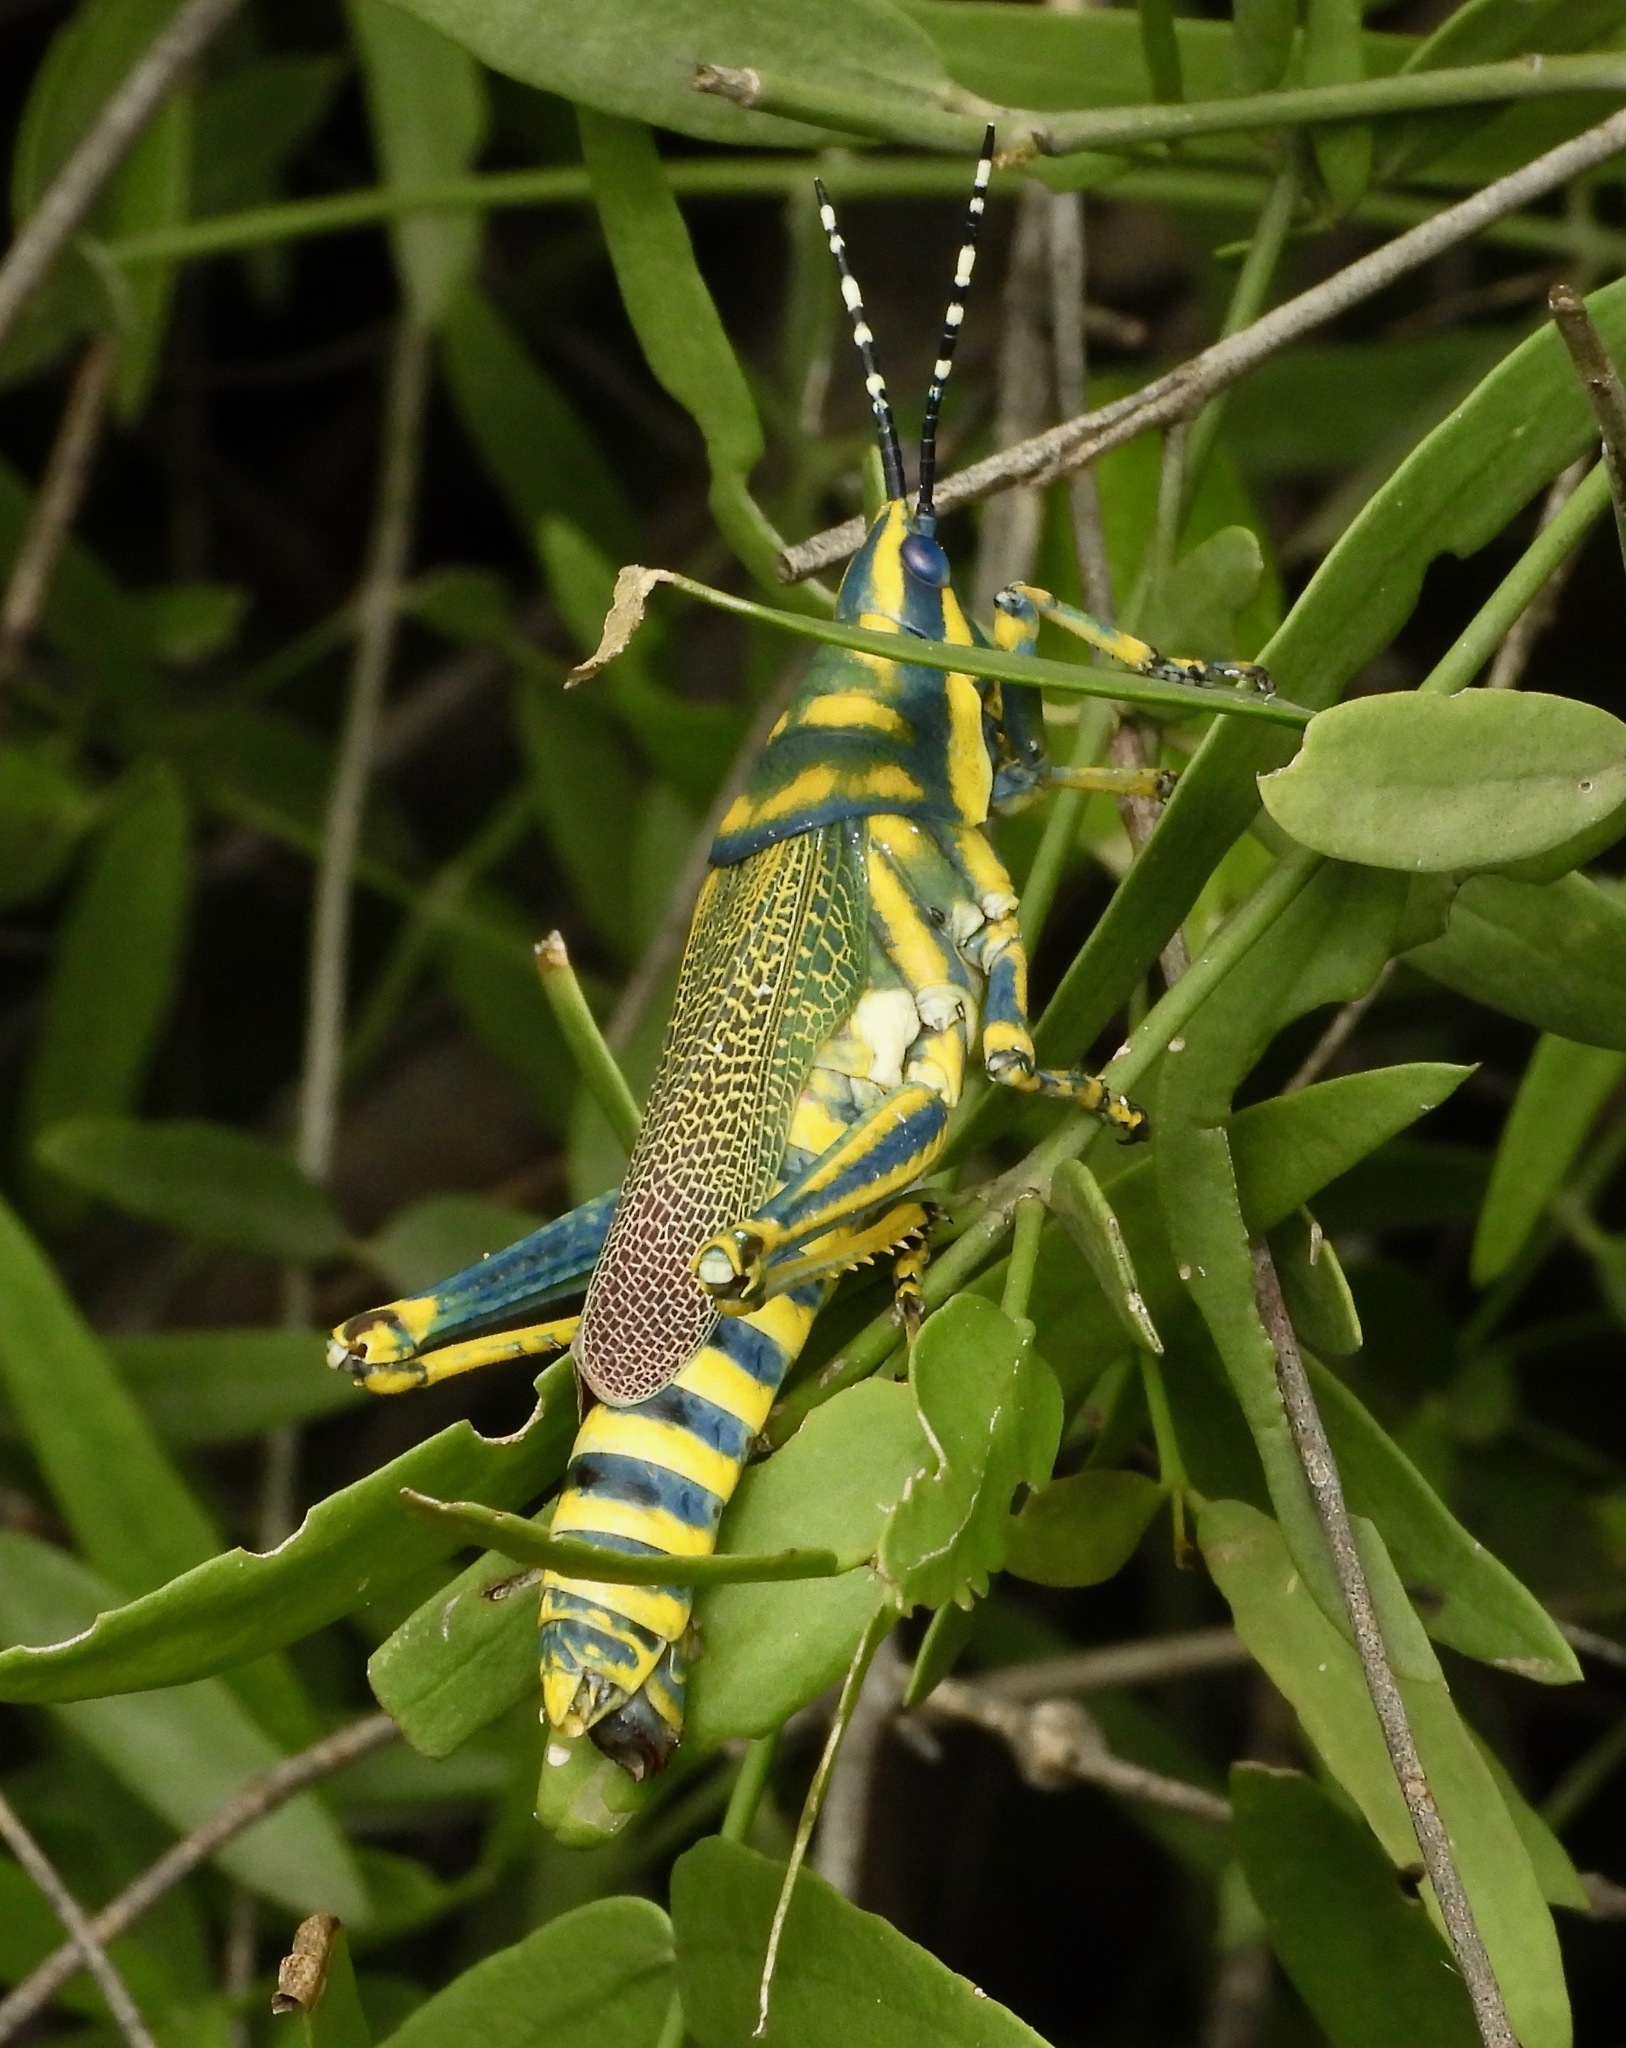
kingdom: Animalia
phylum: Arthropoda
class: Insecta
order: Orthoptera
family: Pyrgomorphidae
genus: Poekilocerus
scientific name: Poekilocerus pictus
